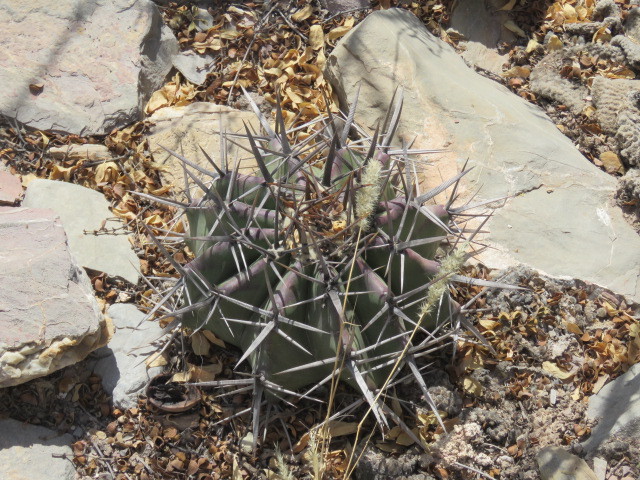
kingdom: Plantae
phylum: Tracheophyta
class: Magnoliopsida
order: Caryophyllales
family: Cactaceae
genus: Echinocactus
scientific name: Echinocactus platyacanthus
